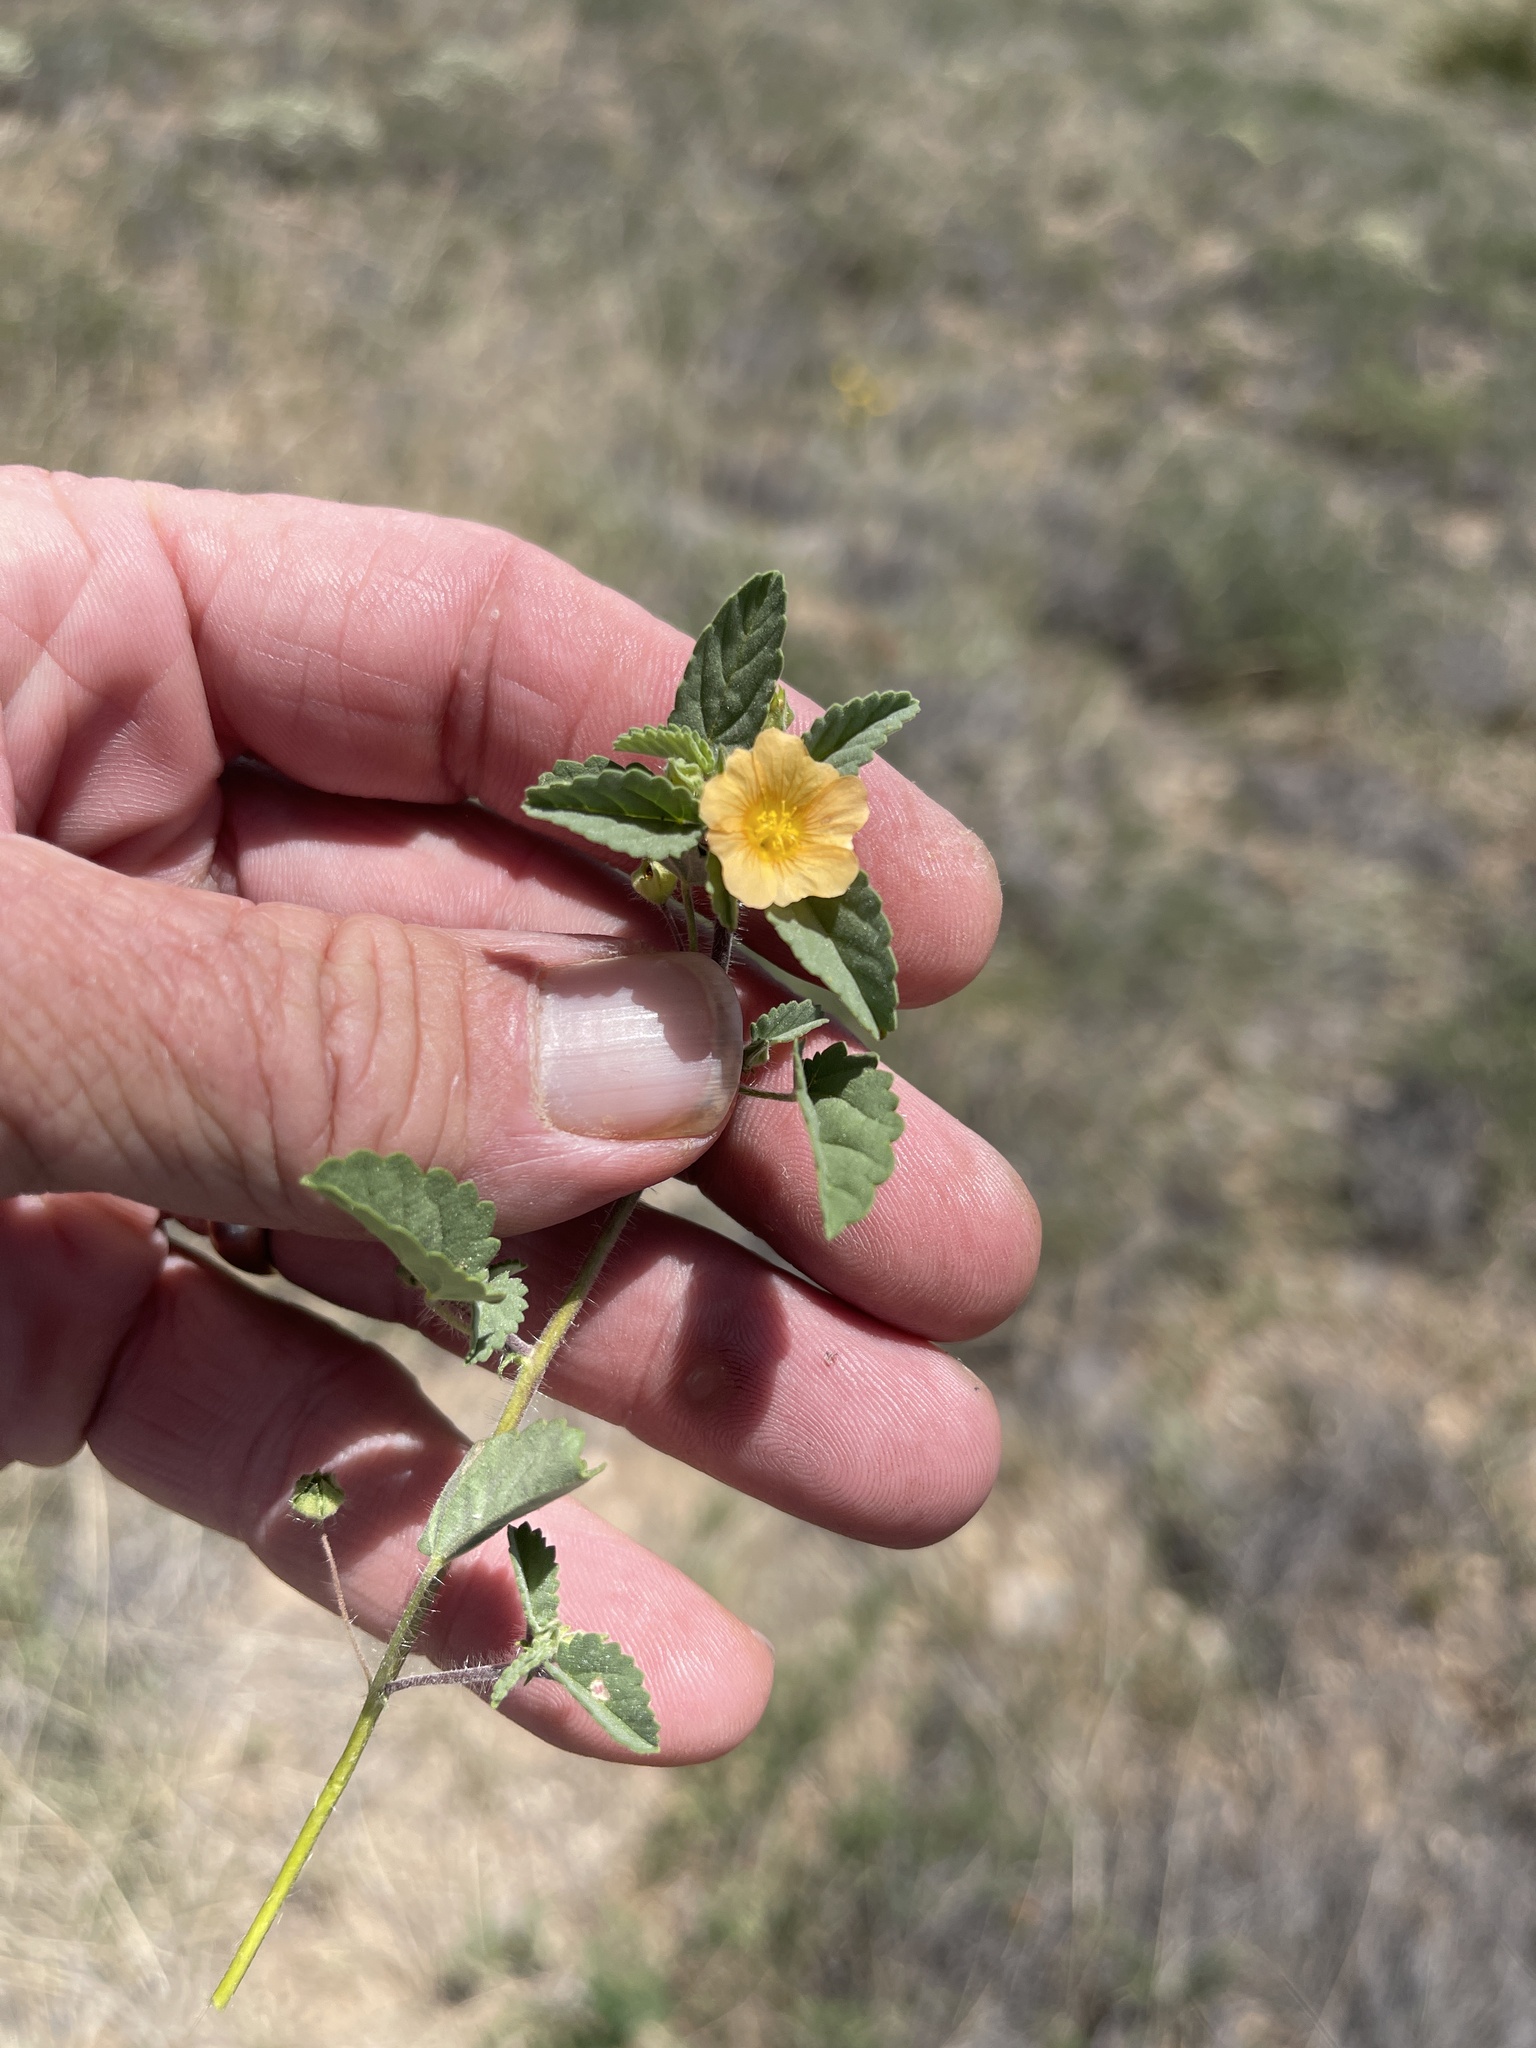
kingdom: Plantae
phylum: Tracheophyta
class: Magnoliopsida
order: Malvales
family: Malvaceae
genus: Sida
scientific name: Sida abutilifolia
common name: Spreading fanpetals
